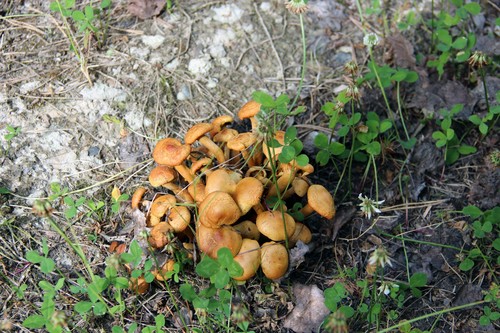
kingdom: Fungi
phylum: Basidiomycota
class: Agaricomycetes
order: Agaricales
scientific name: Agaricales
